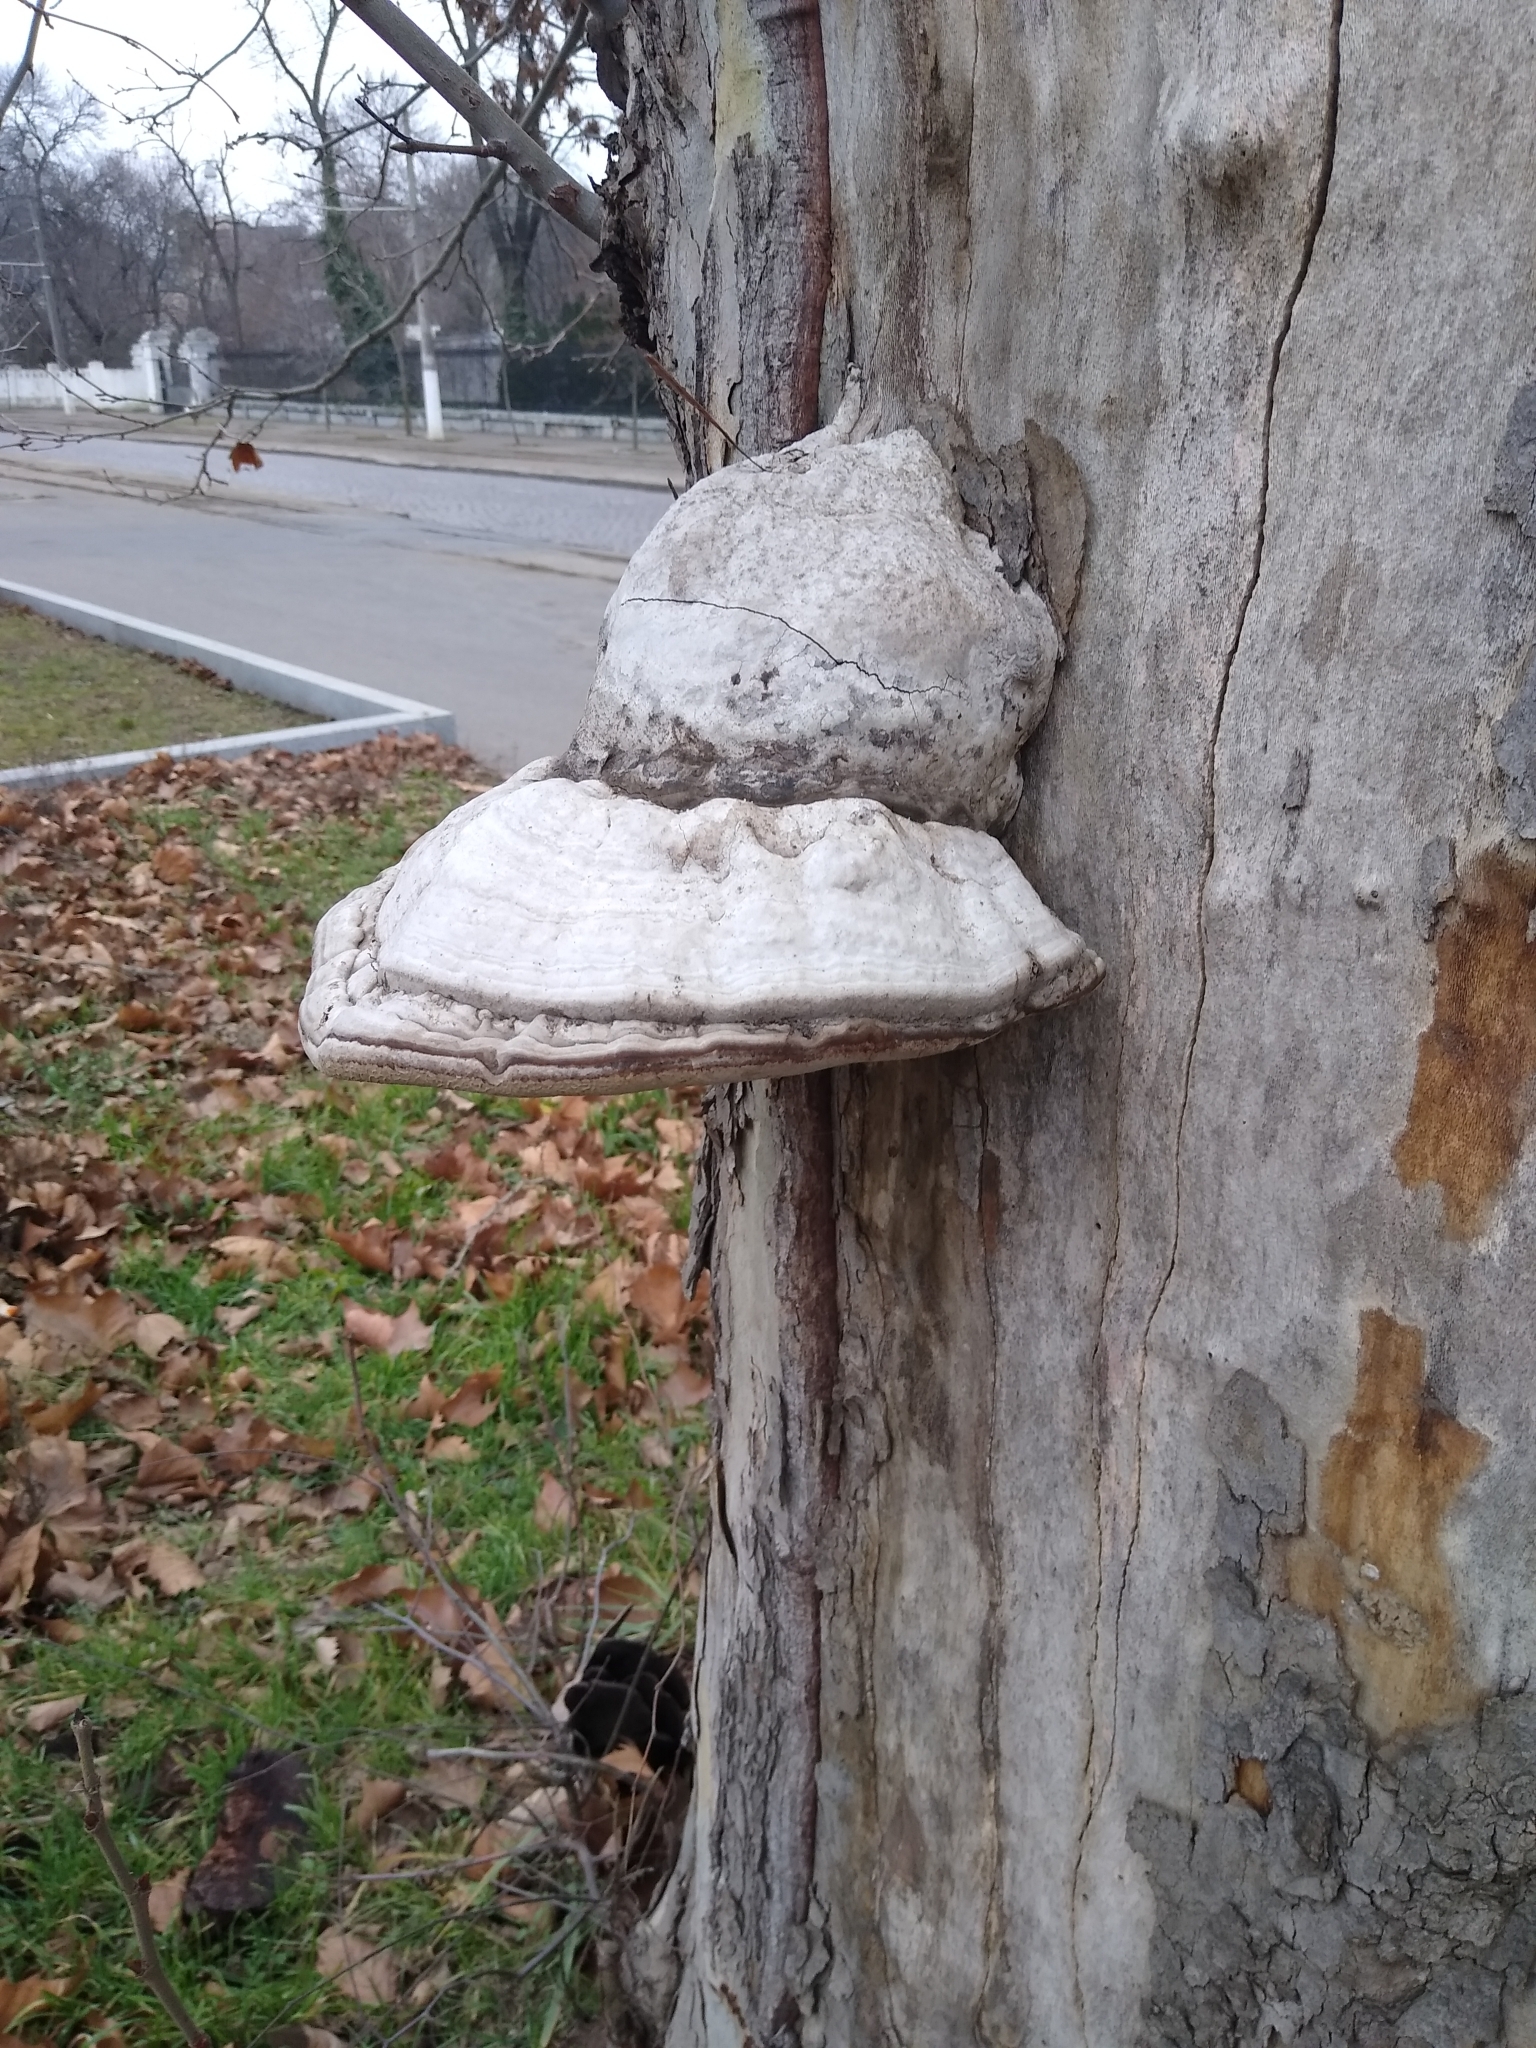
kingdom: Fungi
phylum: Basidiomycota
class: Agaricomycetes
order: Polyporales
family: Polyporaceae
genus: Fomes
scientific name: Fomes fomentarius
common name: Hoof fungus
